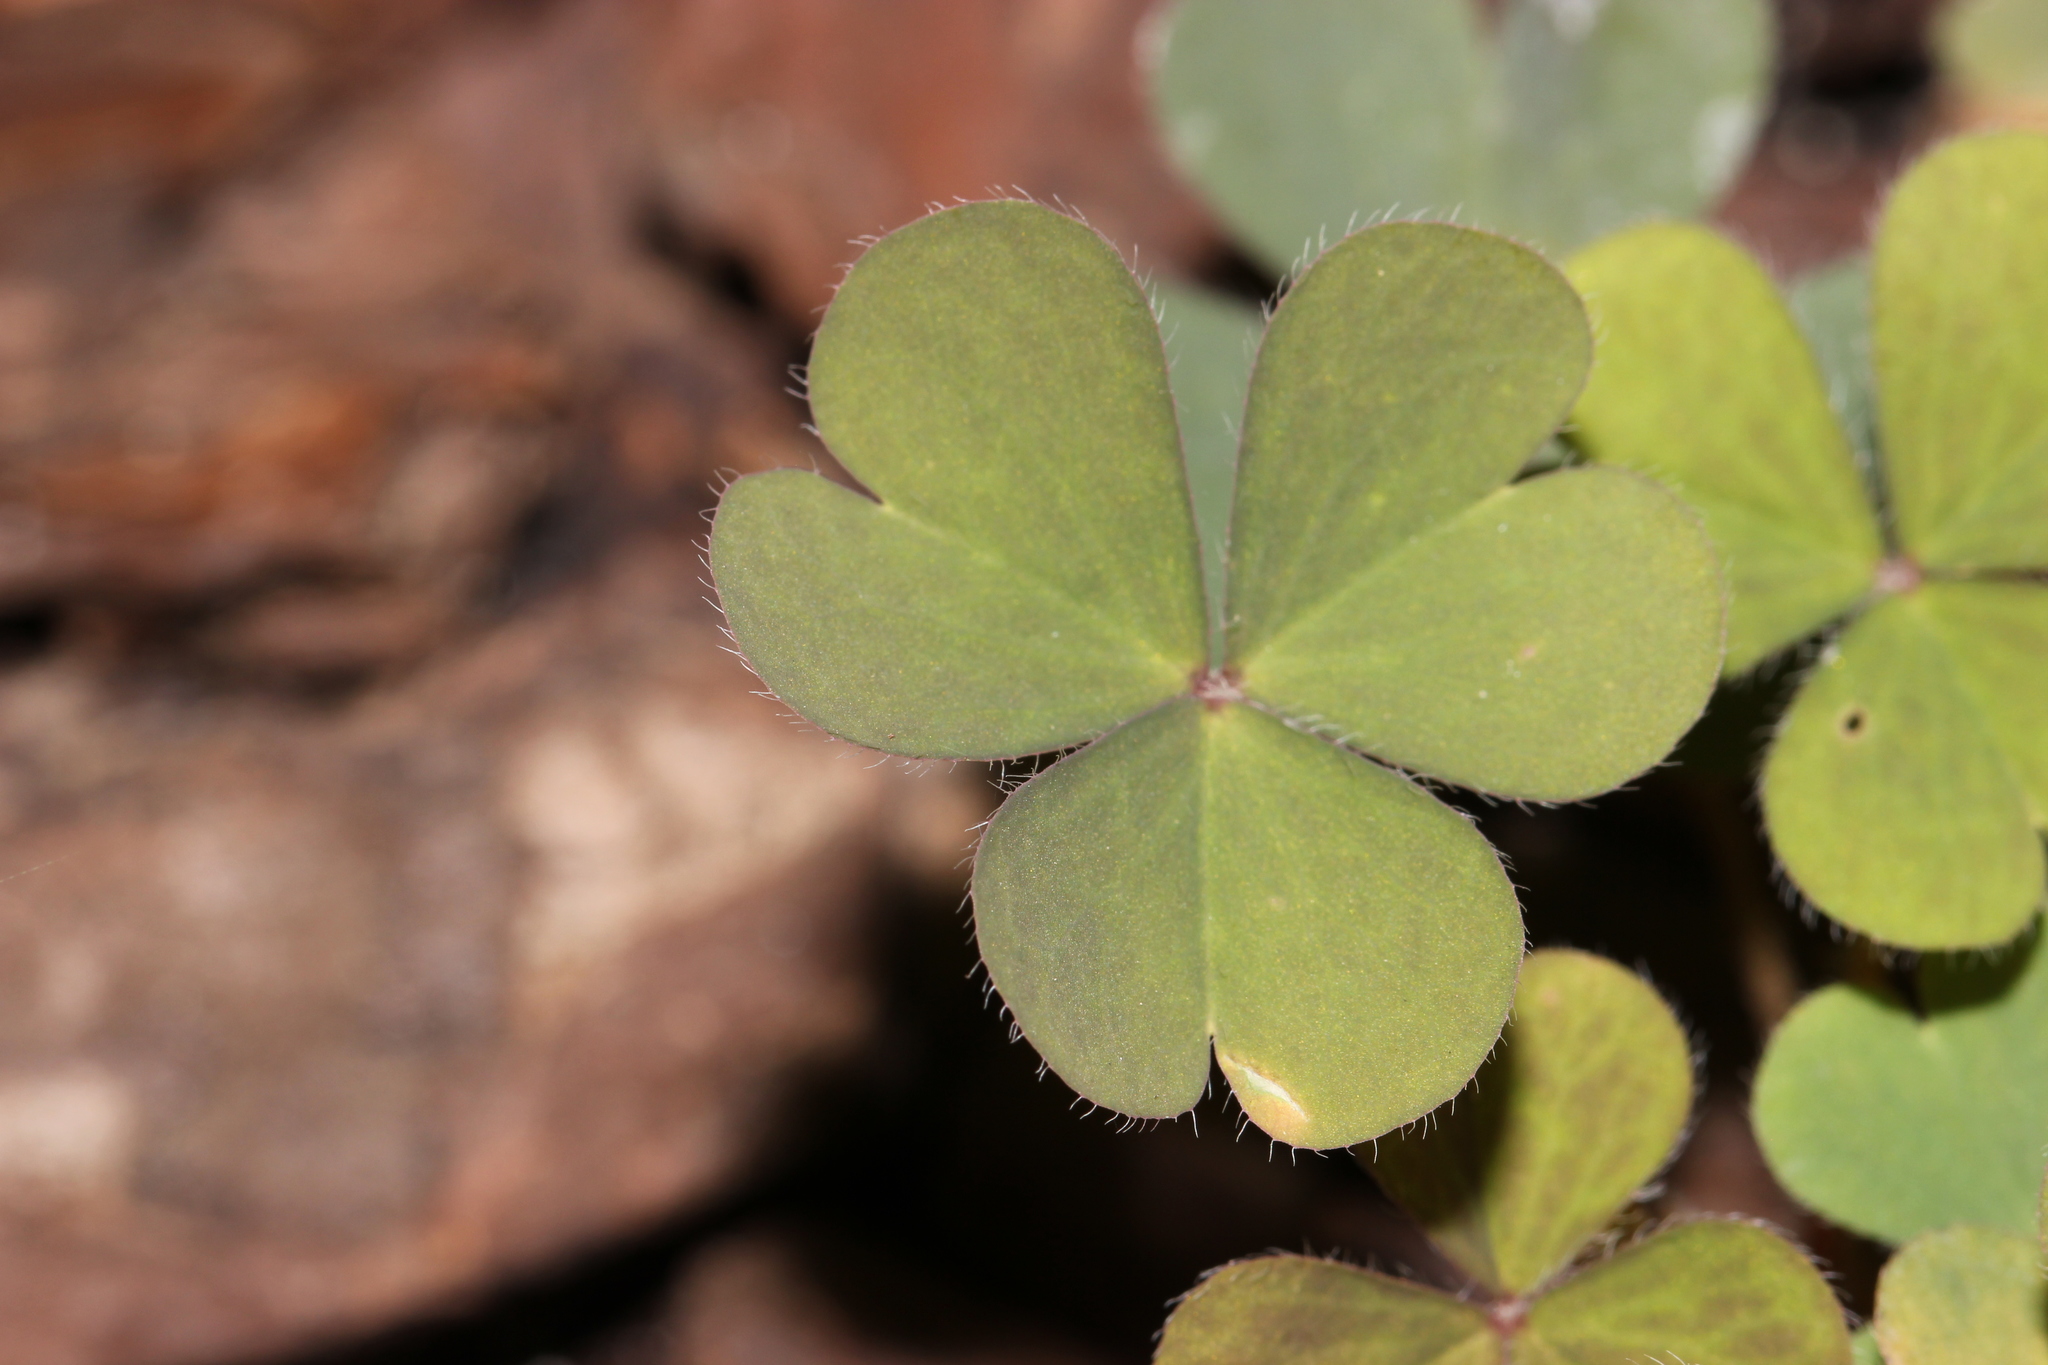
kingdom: Plantae
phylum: Tracheophyta
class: Magnoliopsida
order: Oxalidales
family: Oxalidaceae
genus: Oxalis
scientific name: Oxalis corniculata
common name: Procumbent yellow-sorrel
